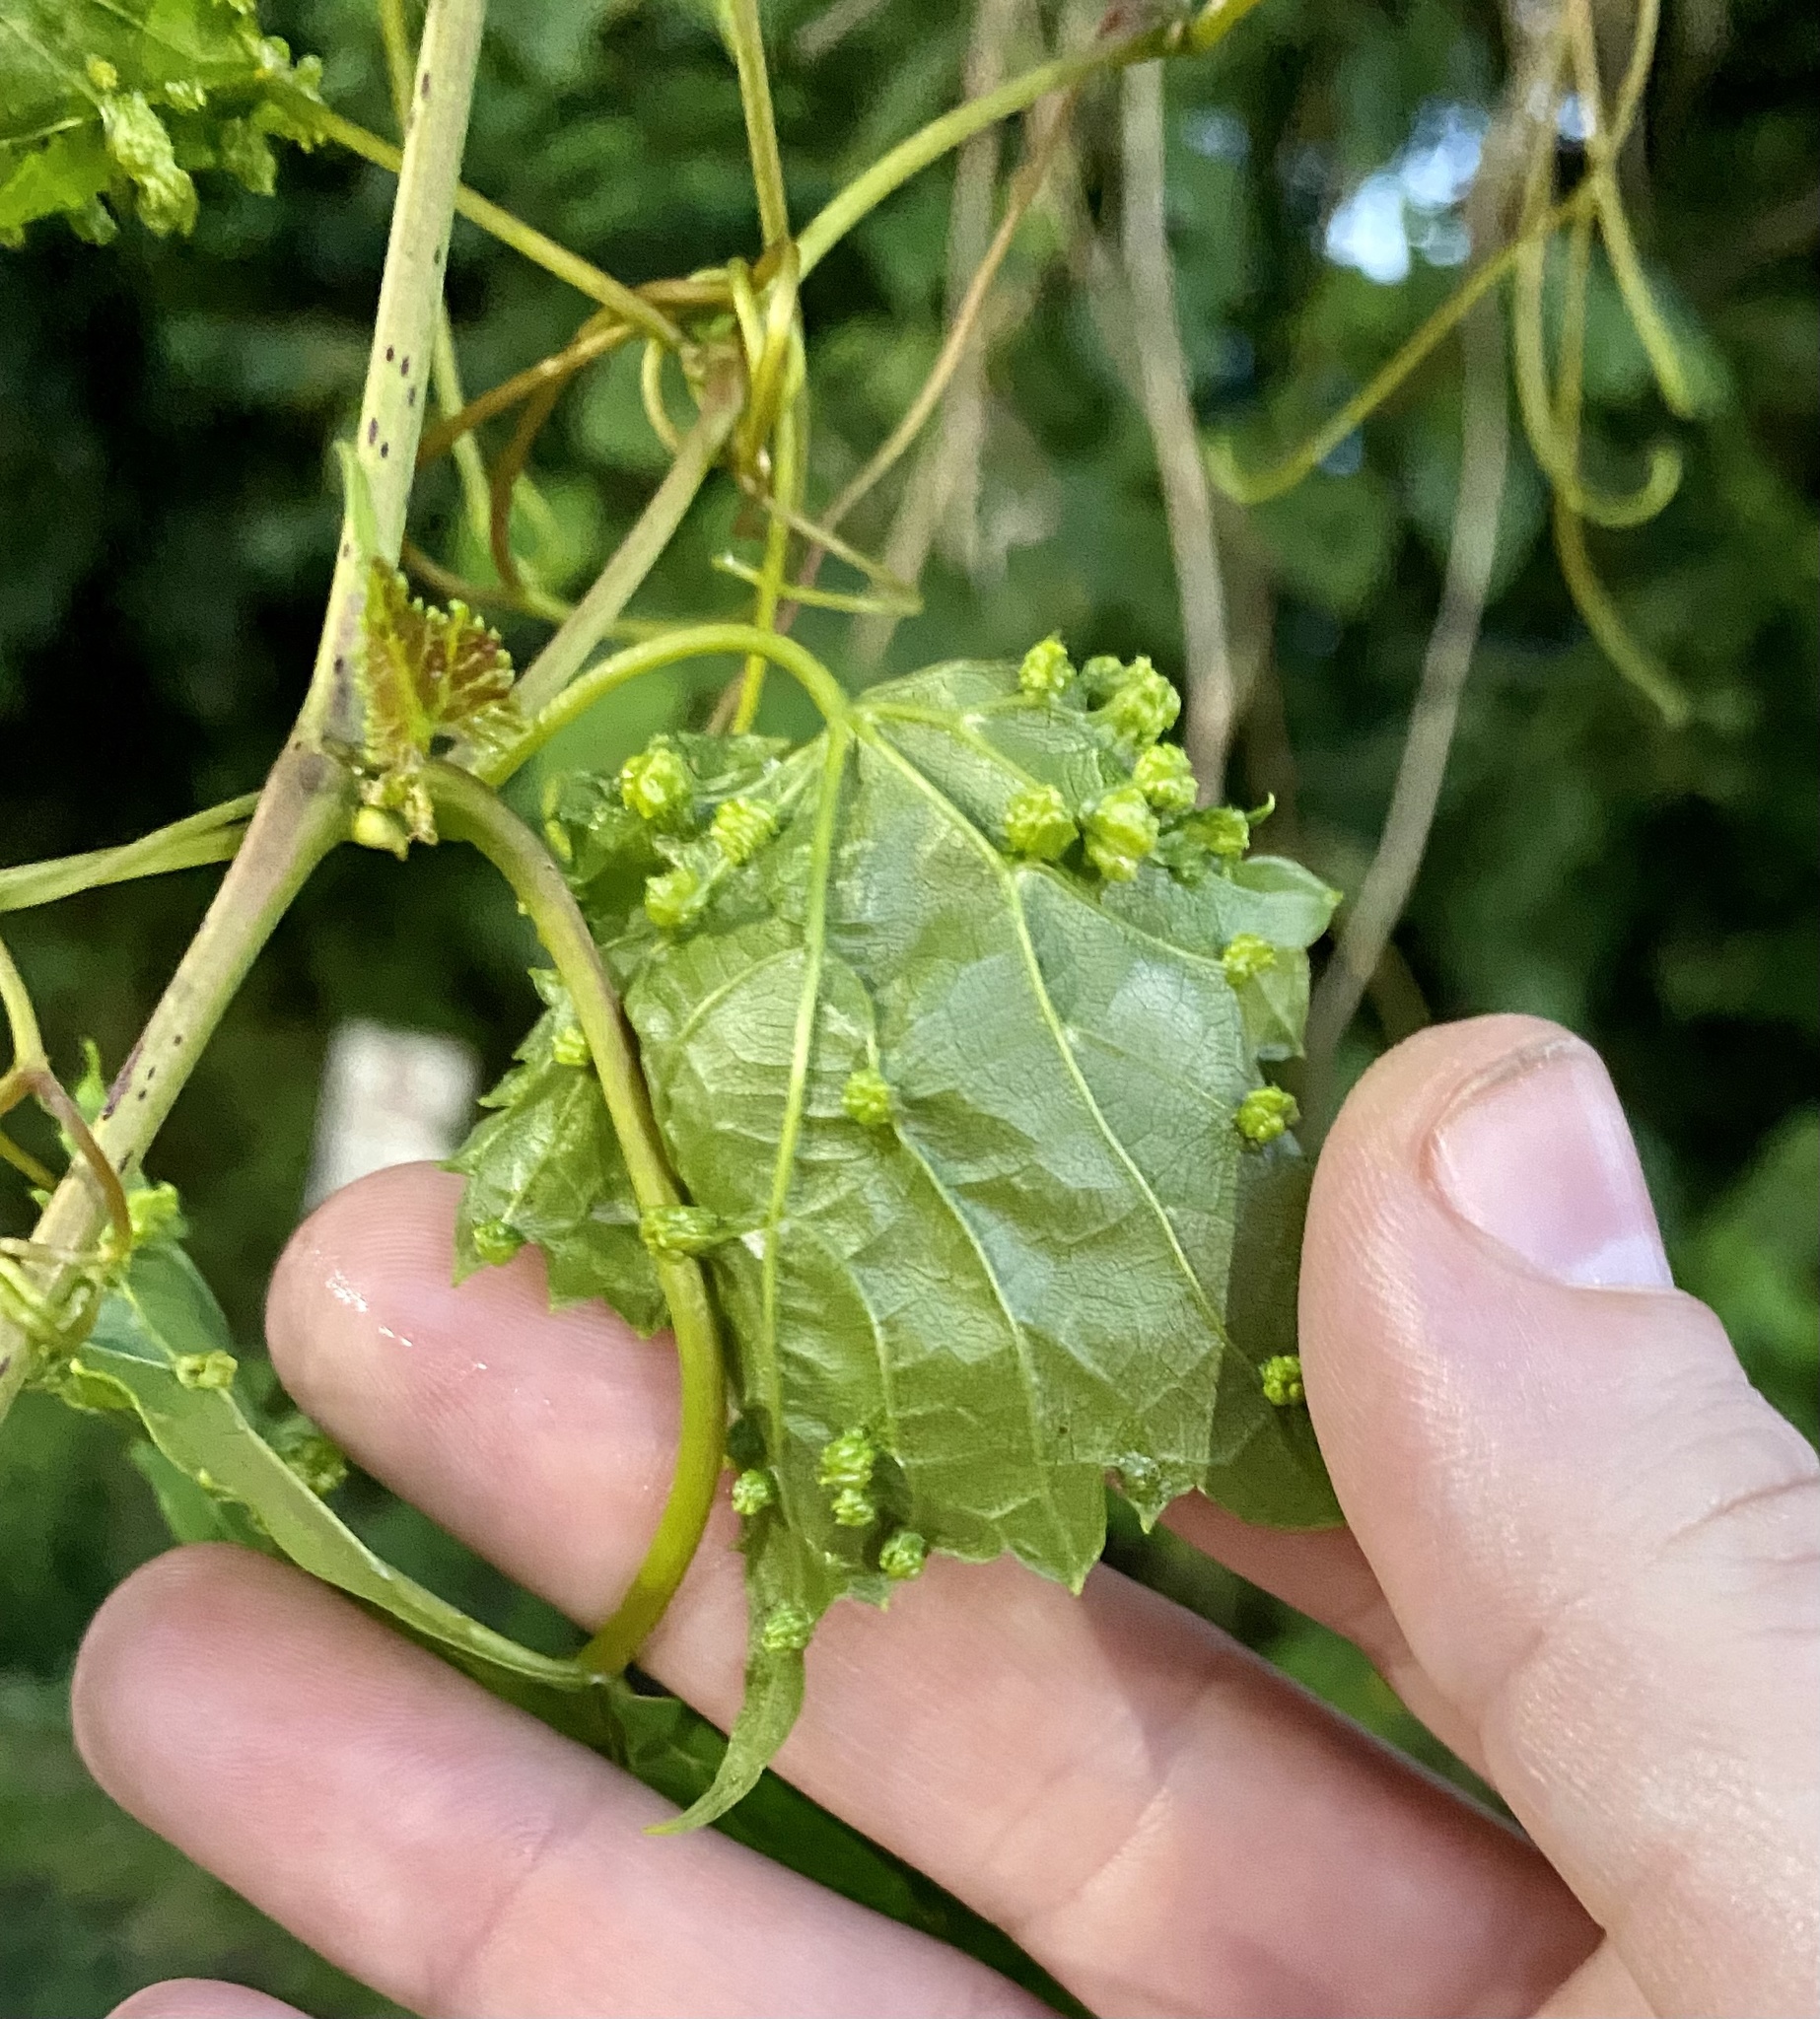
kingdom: Animalia
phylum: Arthropoda
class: Insecta
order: Hemiptera
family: Phylloxeridae
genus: Daktulosphaira
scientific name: Daktulosphaira vitifoliae
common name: Grape phylloxera
